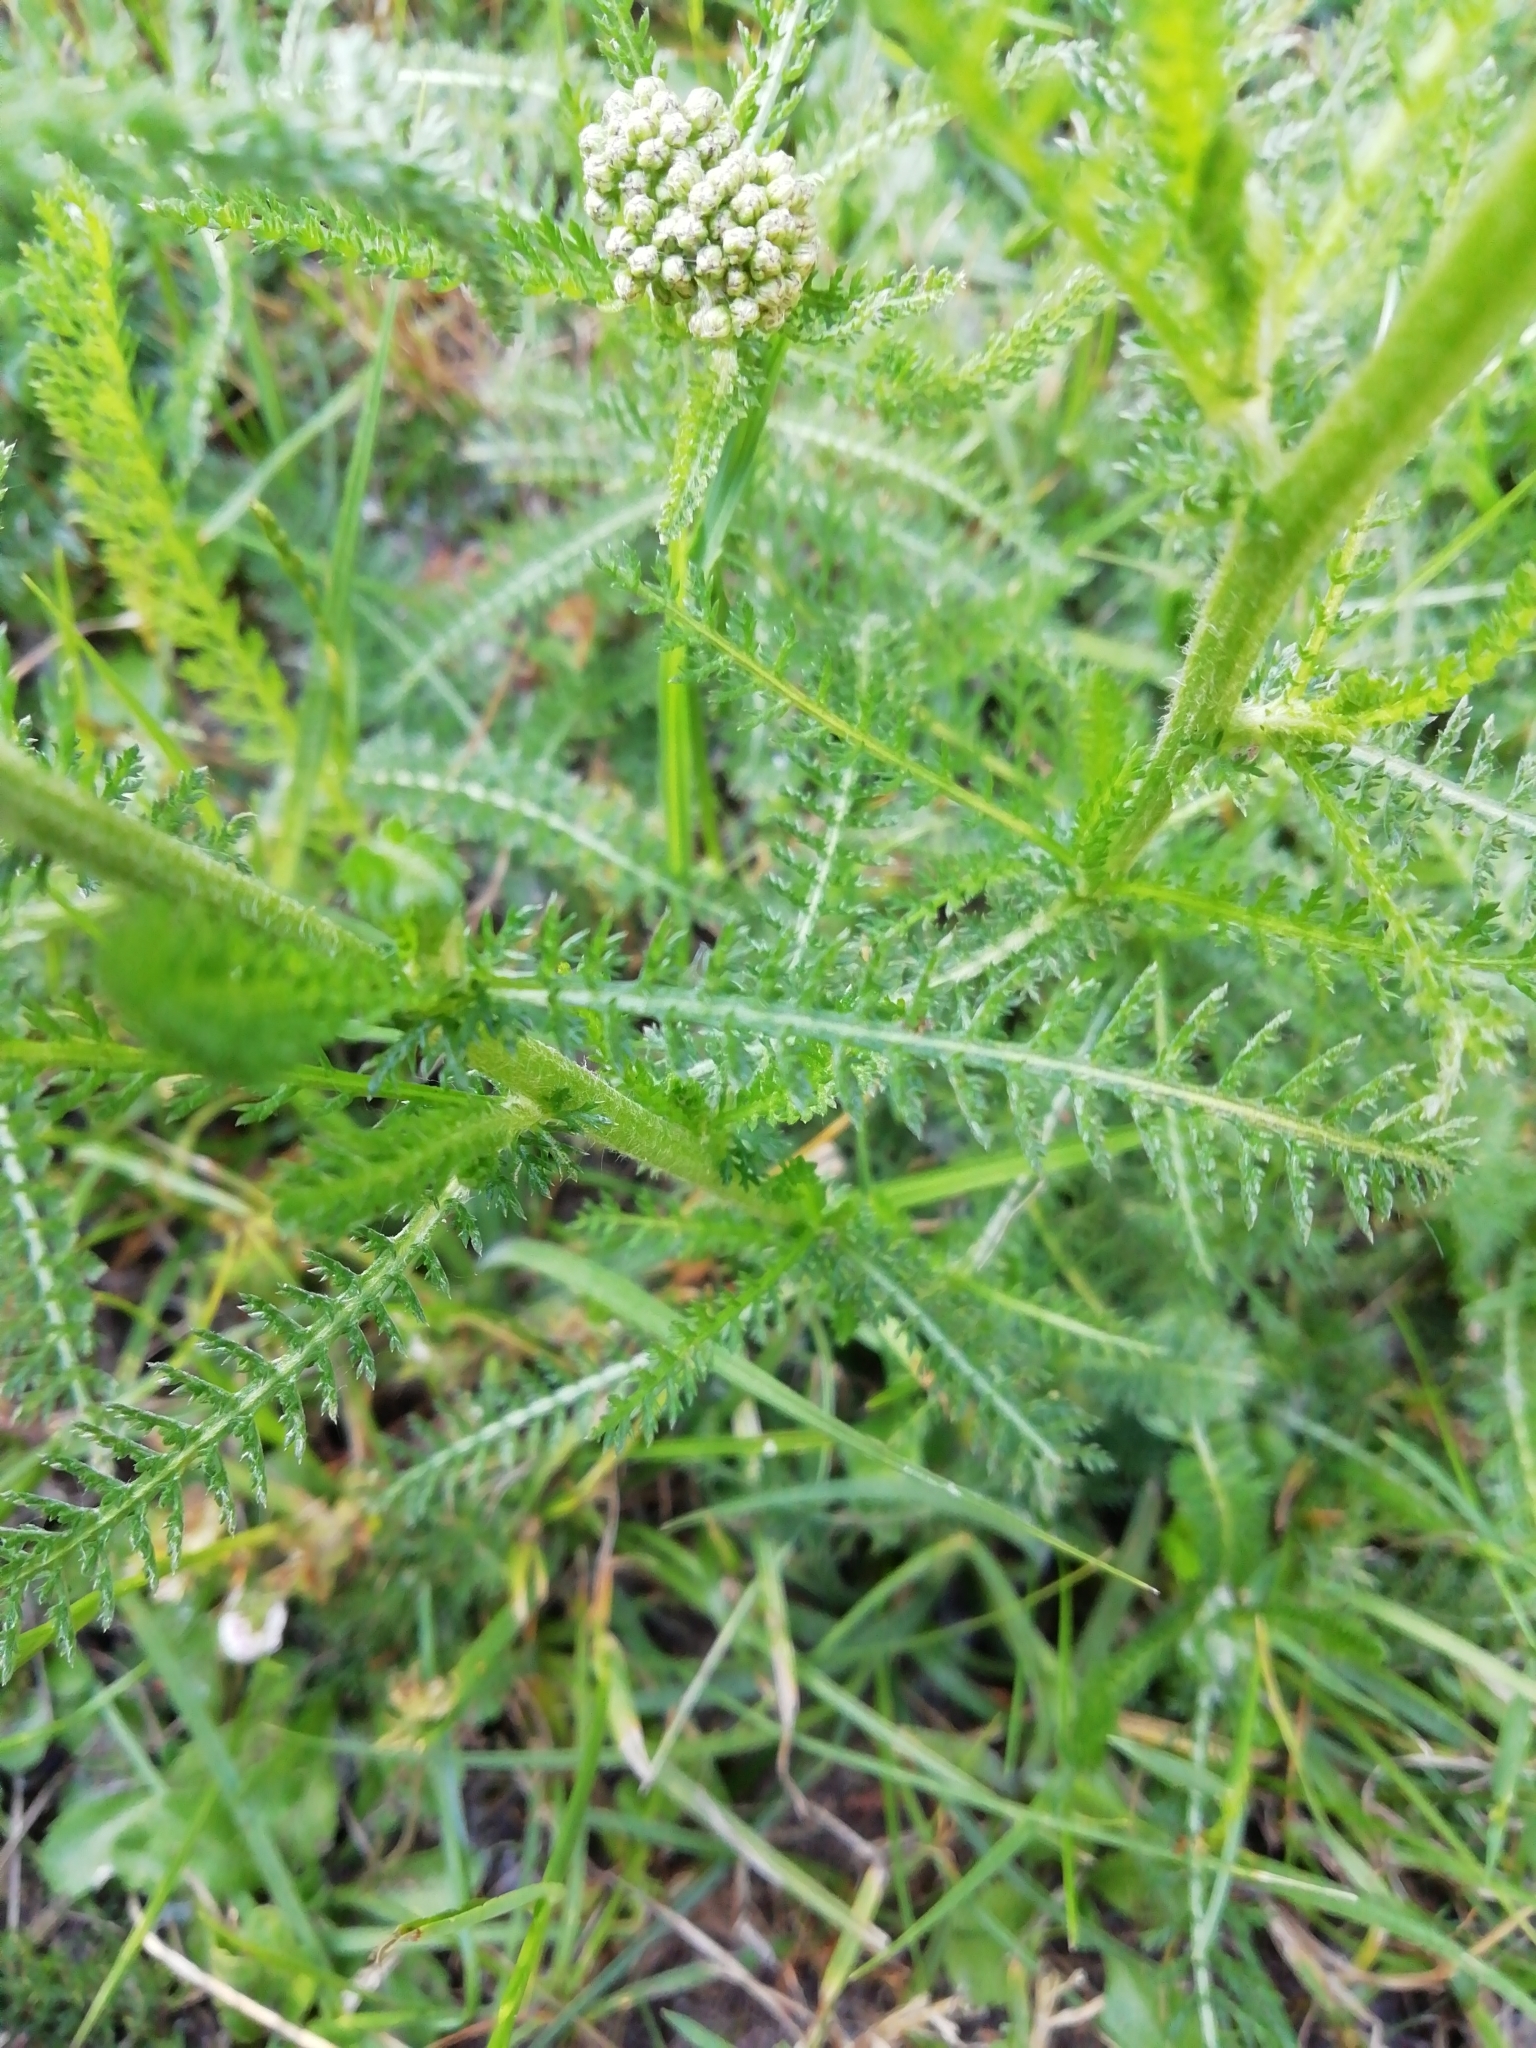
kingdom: Plantae
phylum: Tracheophyta
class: Magnoliopsida
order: Asterales
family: Asteraceae
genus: Achillea
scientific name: Achillea millefolium
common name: Yarrow
